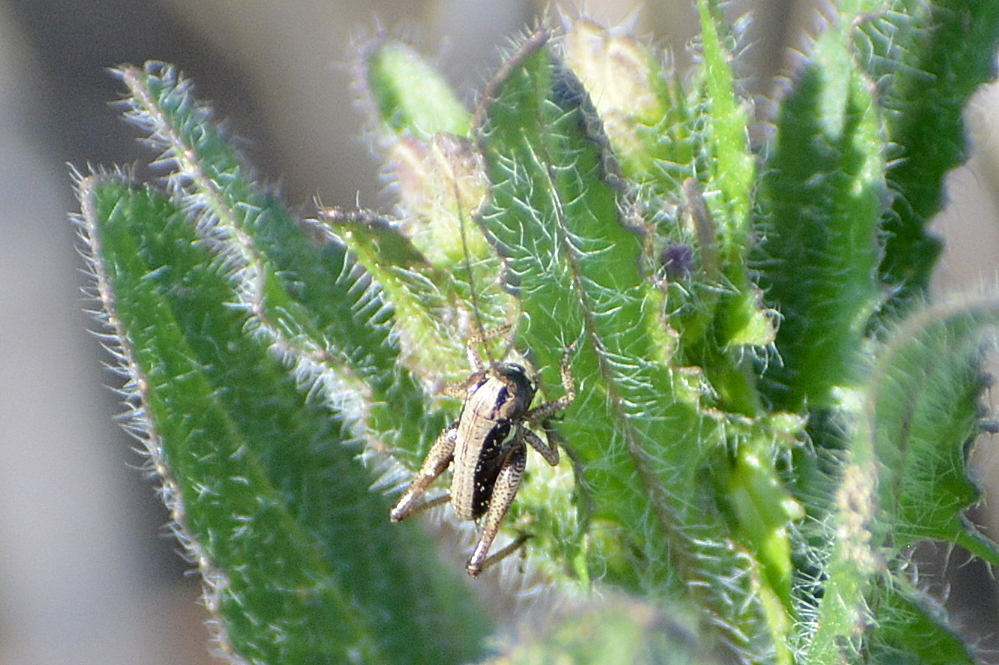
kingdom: Animalia
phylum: Arthropoda
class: Insecta
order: Orthoptera
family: Tettigoniidae
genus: Platycleis
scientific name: Platycleis albopunctata
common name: Grey bush-cricket
